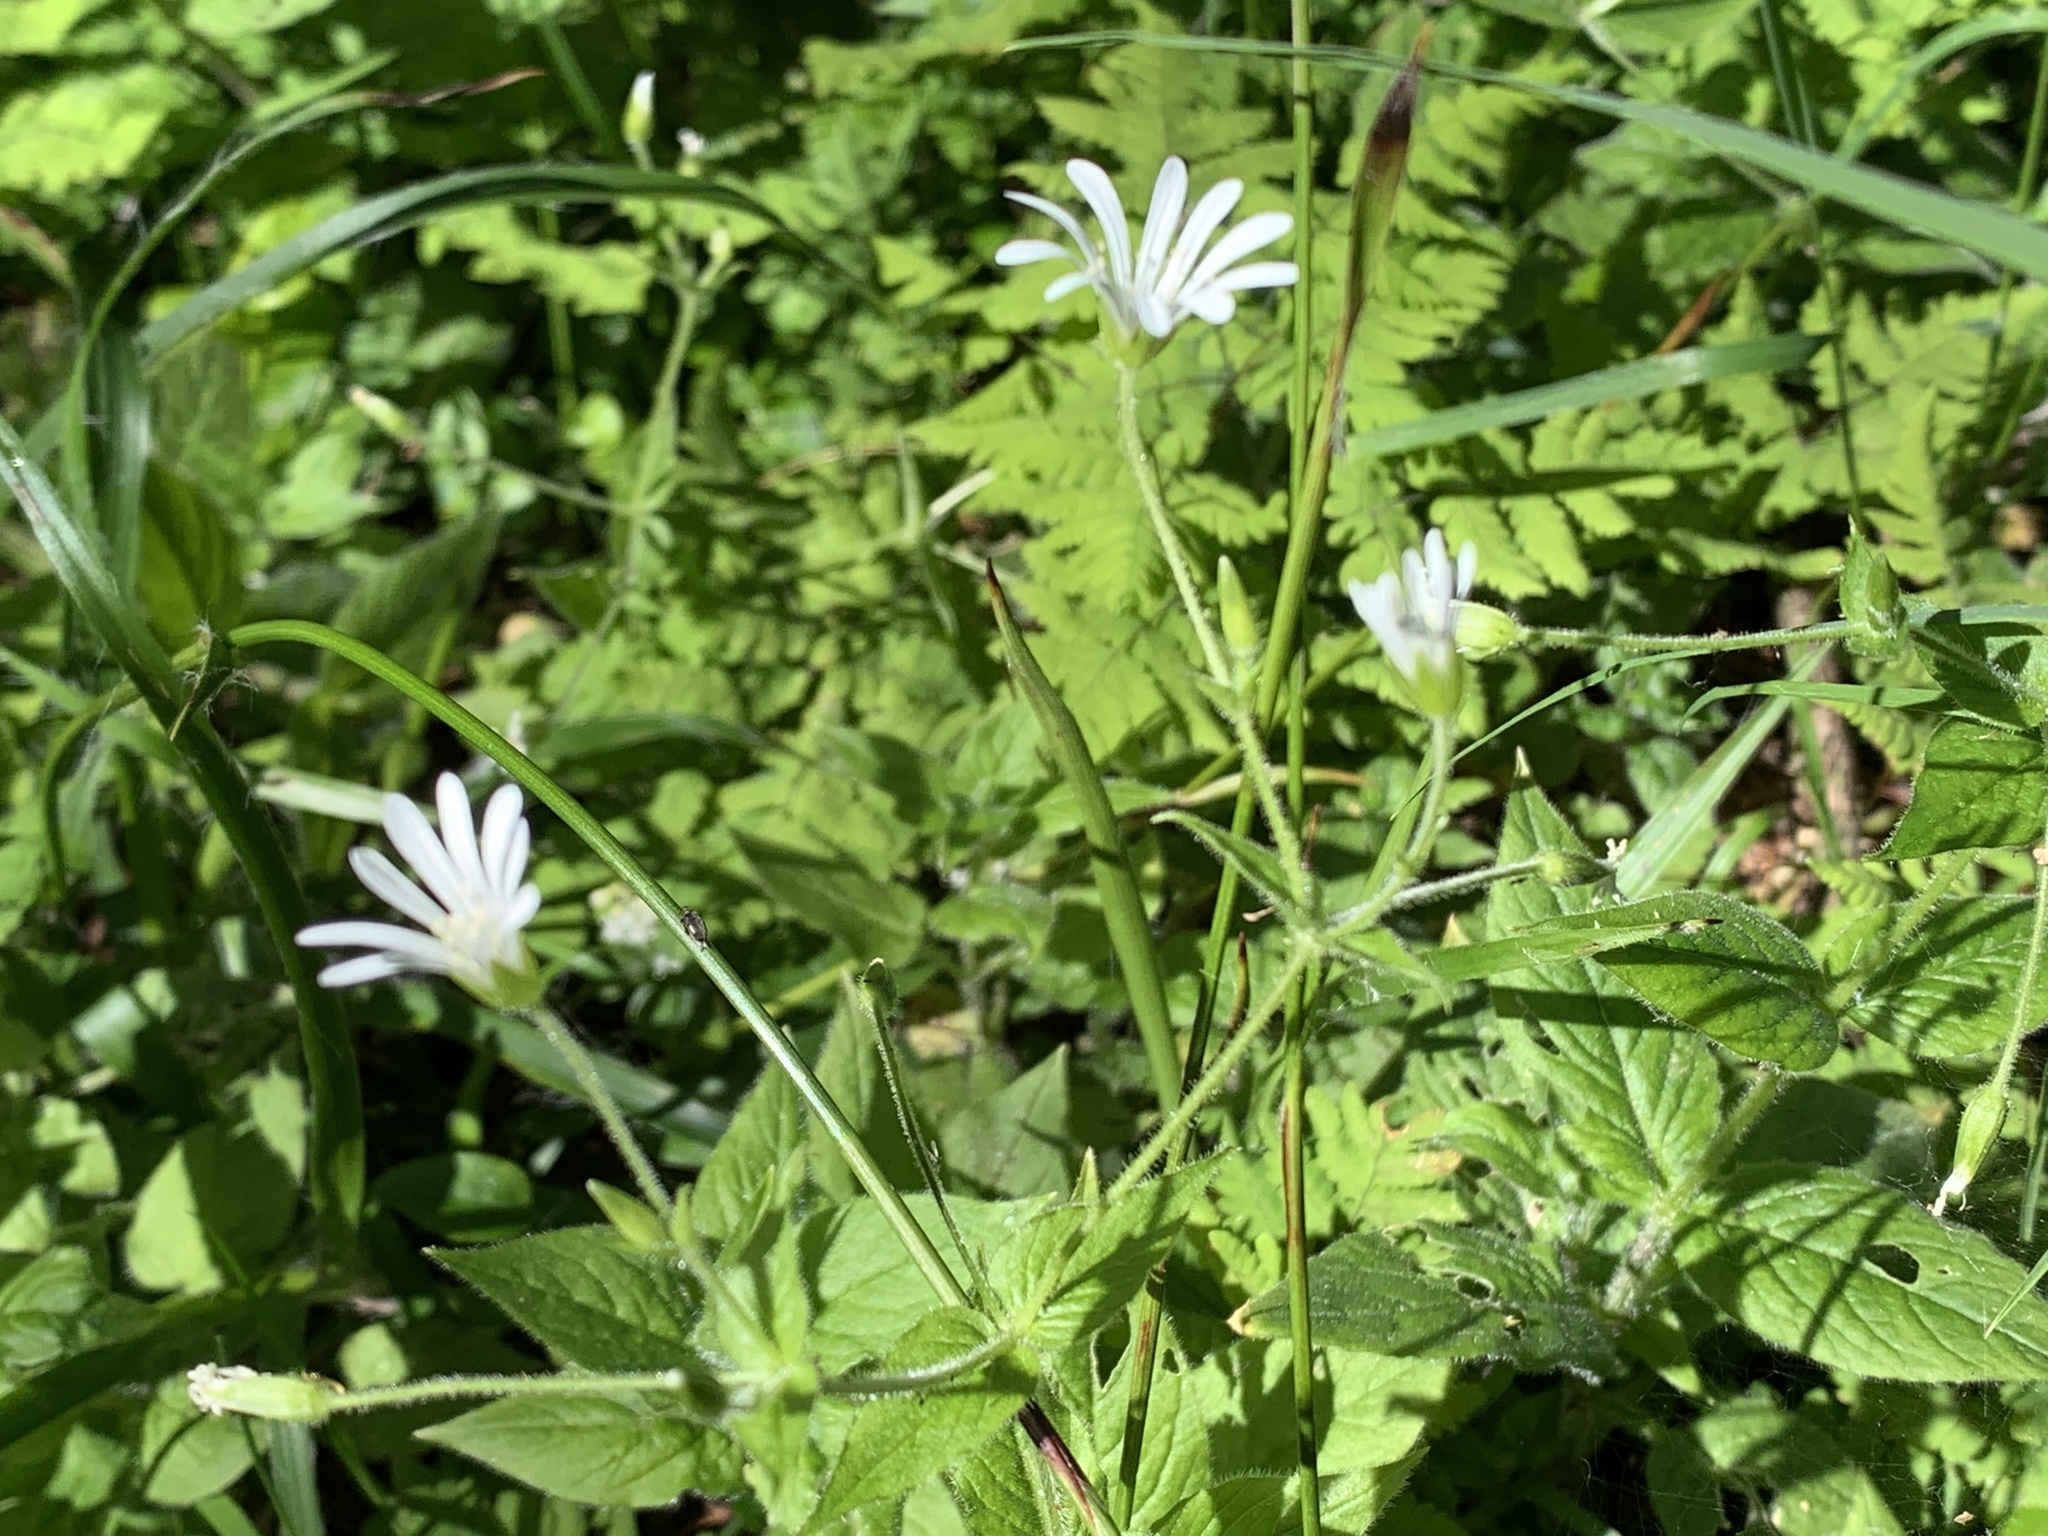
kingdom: Plantae
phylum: Tracheophyta
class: Magnoliopsida
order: Caryophyllales
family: Caryophyllaceae
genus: Stellaria
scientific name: Stellaria nemorum
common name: Wood stitchwort
